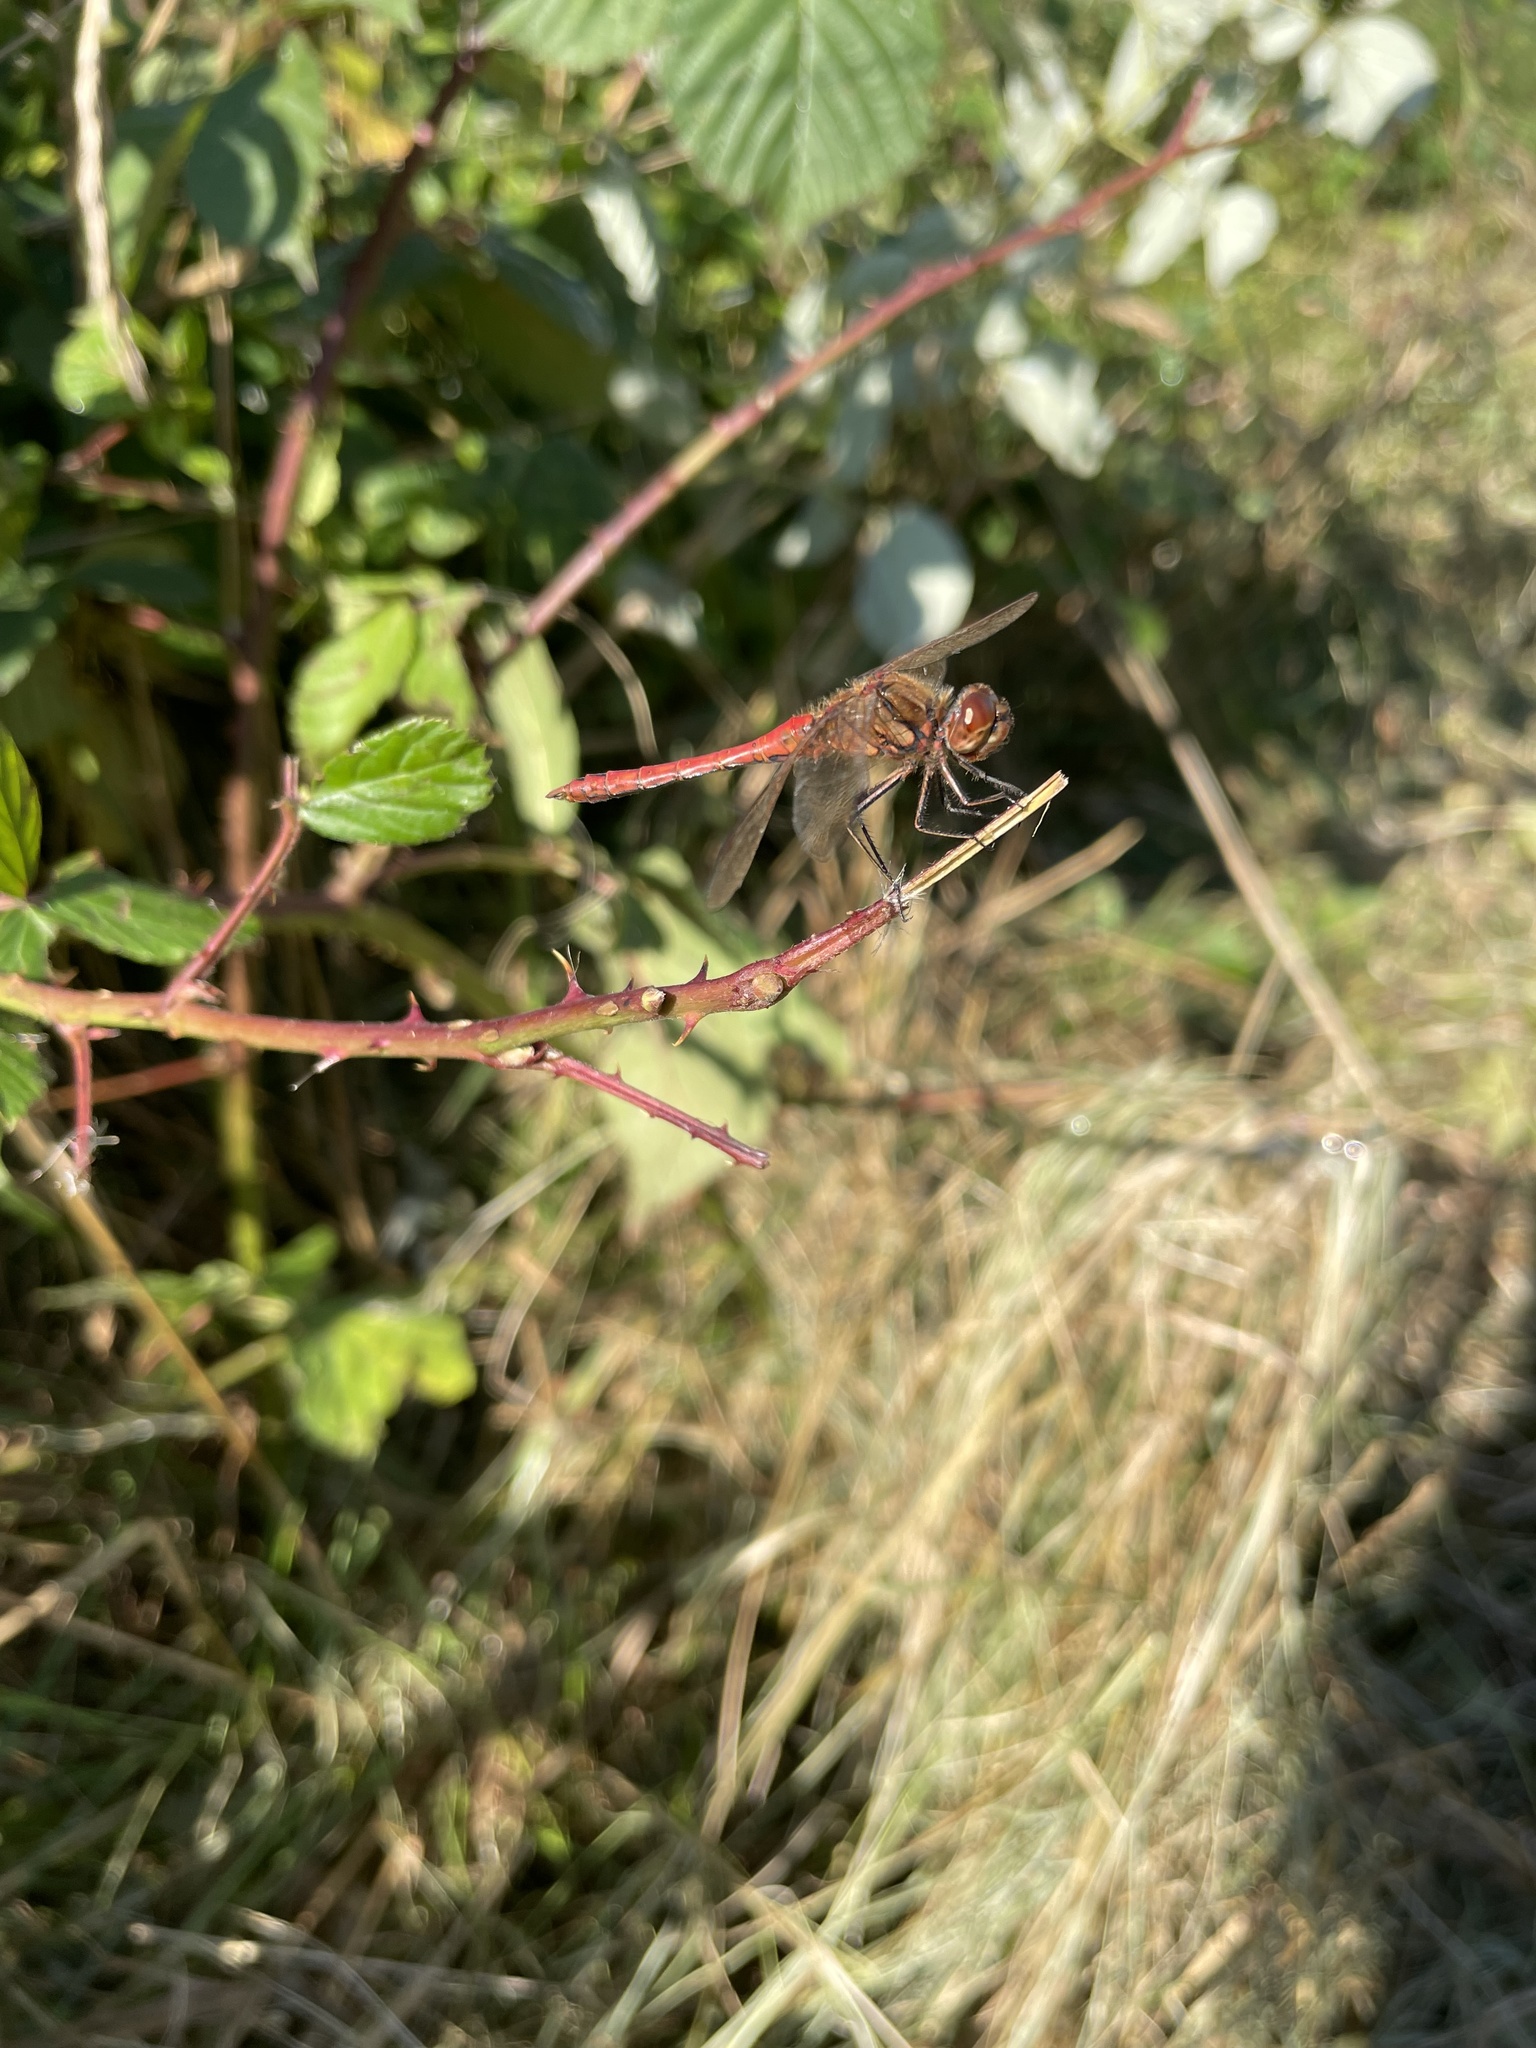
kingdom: Animalia
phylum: Arthropoda
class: Insecta
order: Odonata
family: Libellulidae
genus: Sympetrum
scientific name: Sympetrum vulgatum
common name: Vagrant darter
